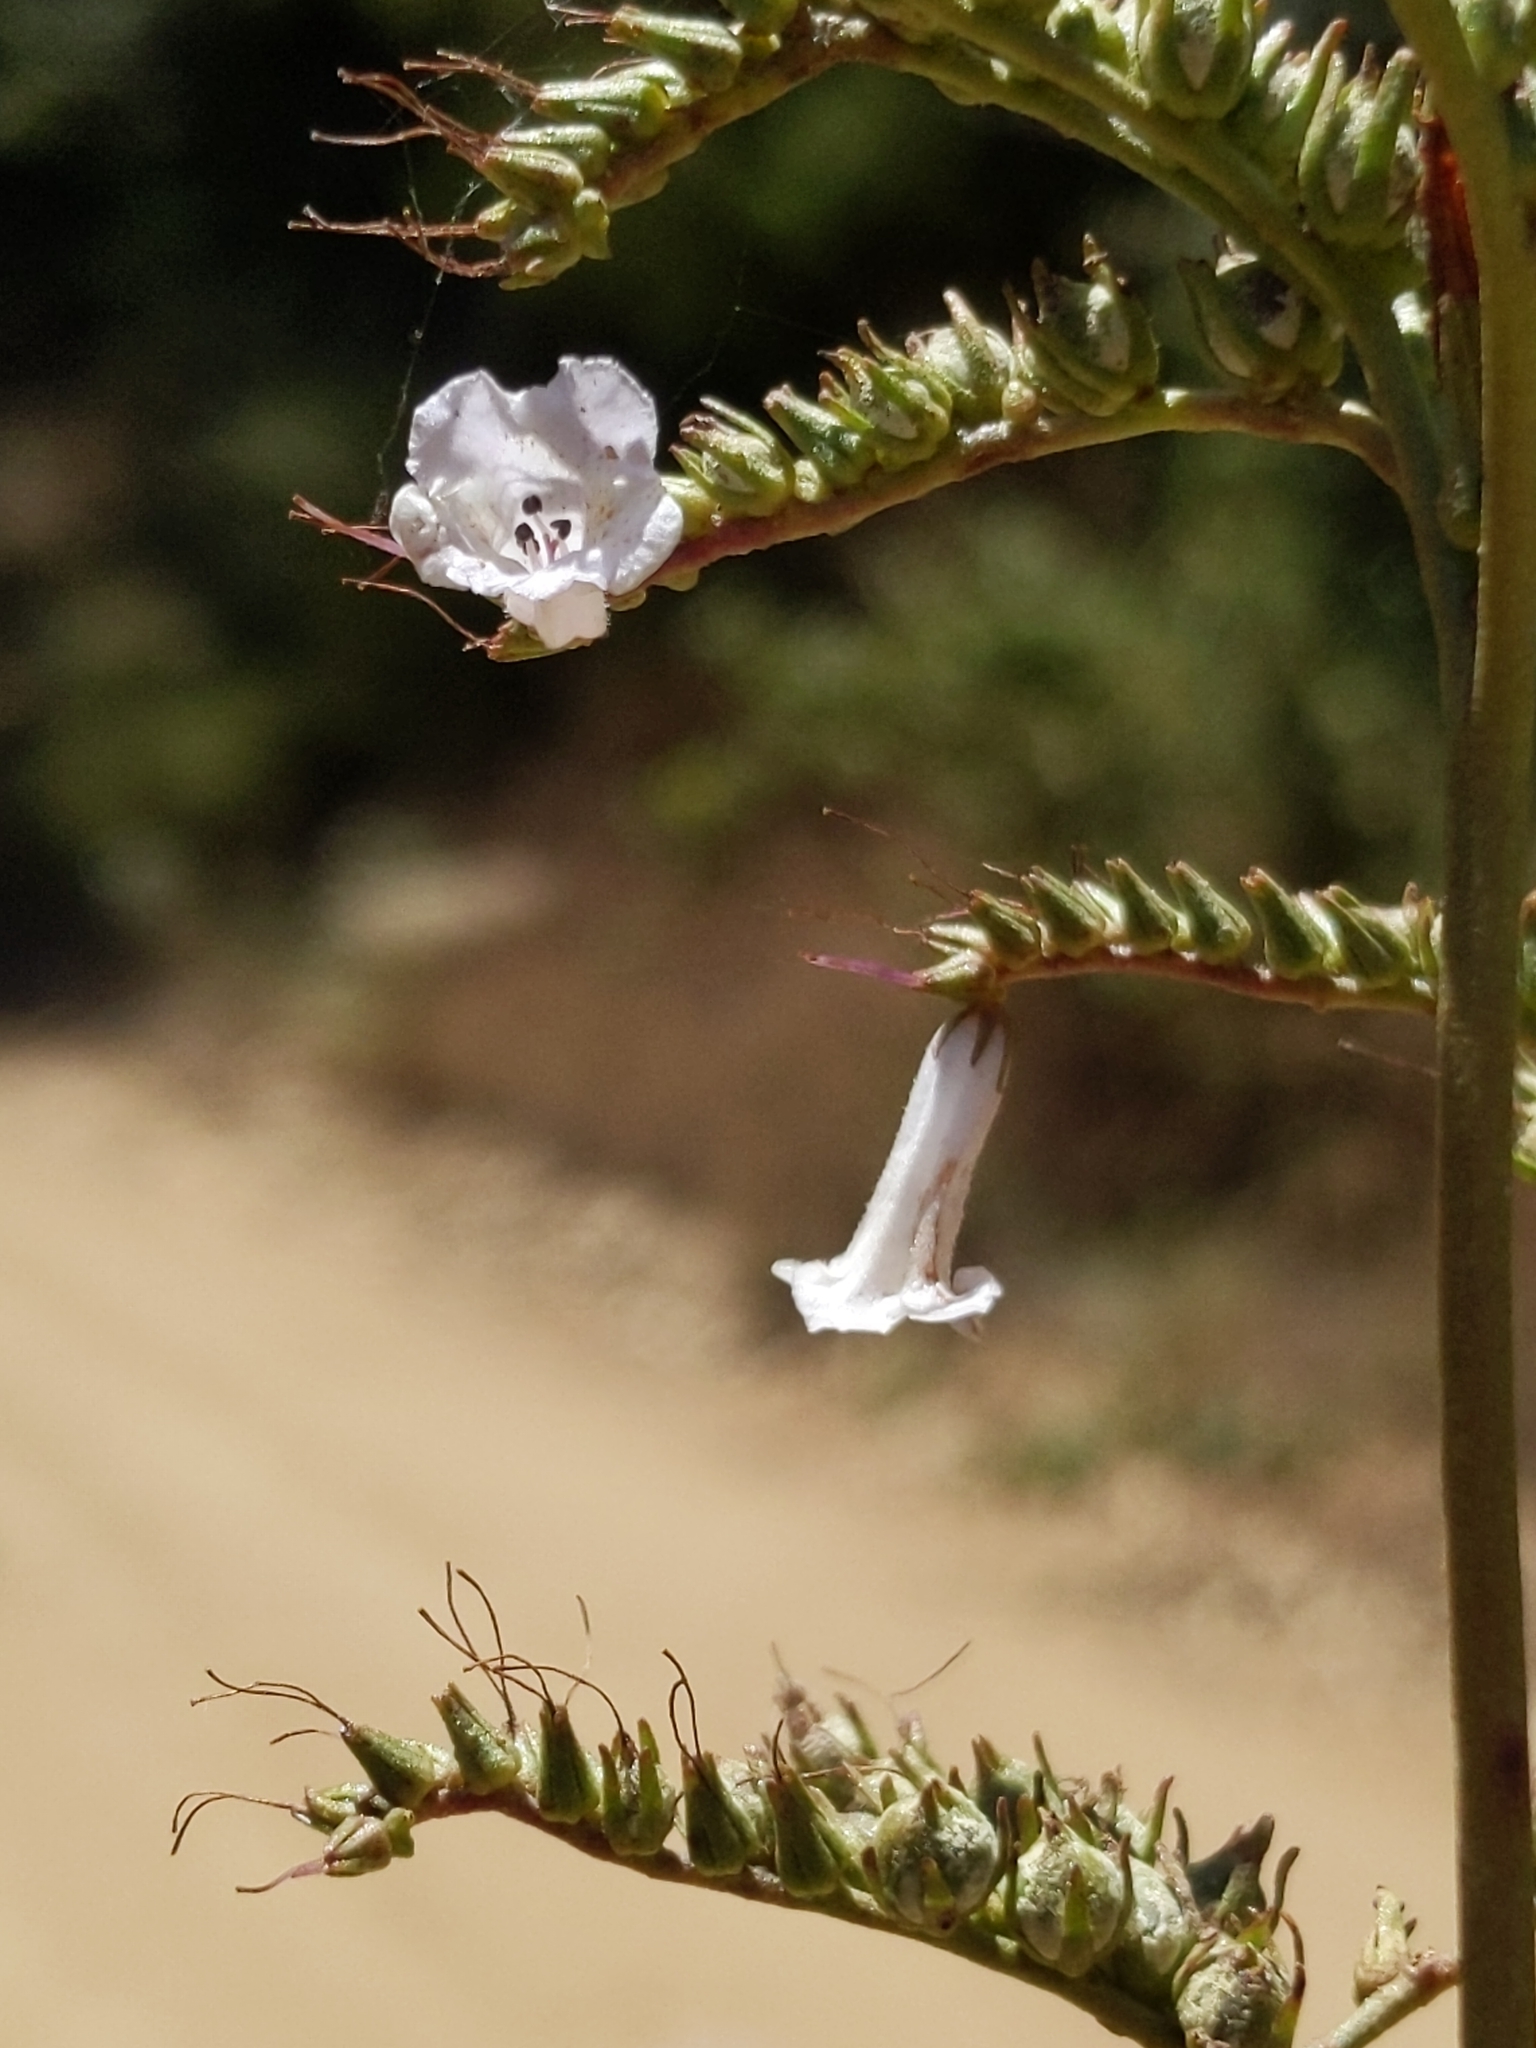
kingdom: Plantae
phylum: Tracheophyta
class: Magnoliopsida
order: Boraginales
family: Namaceae
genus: Eriodictyon
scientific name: Eriodictyon californicum
